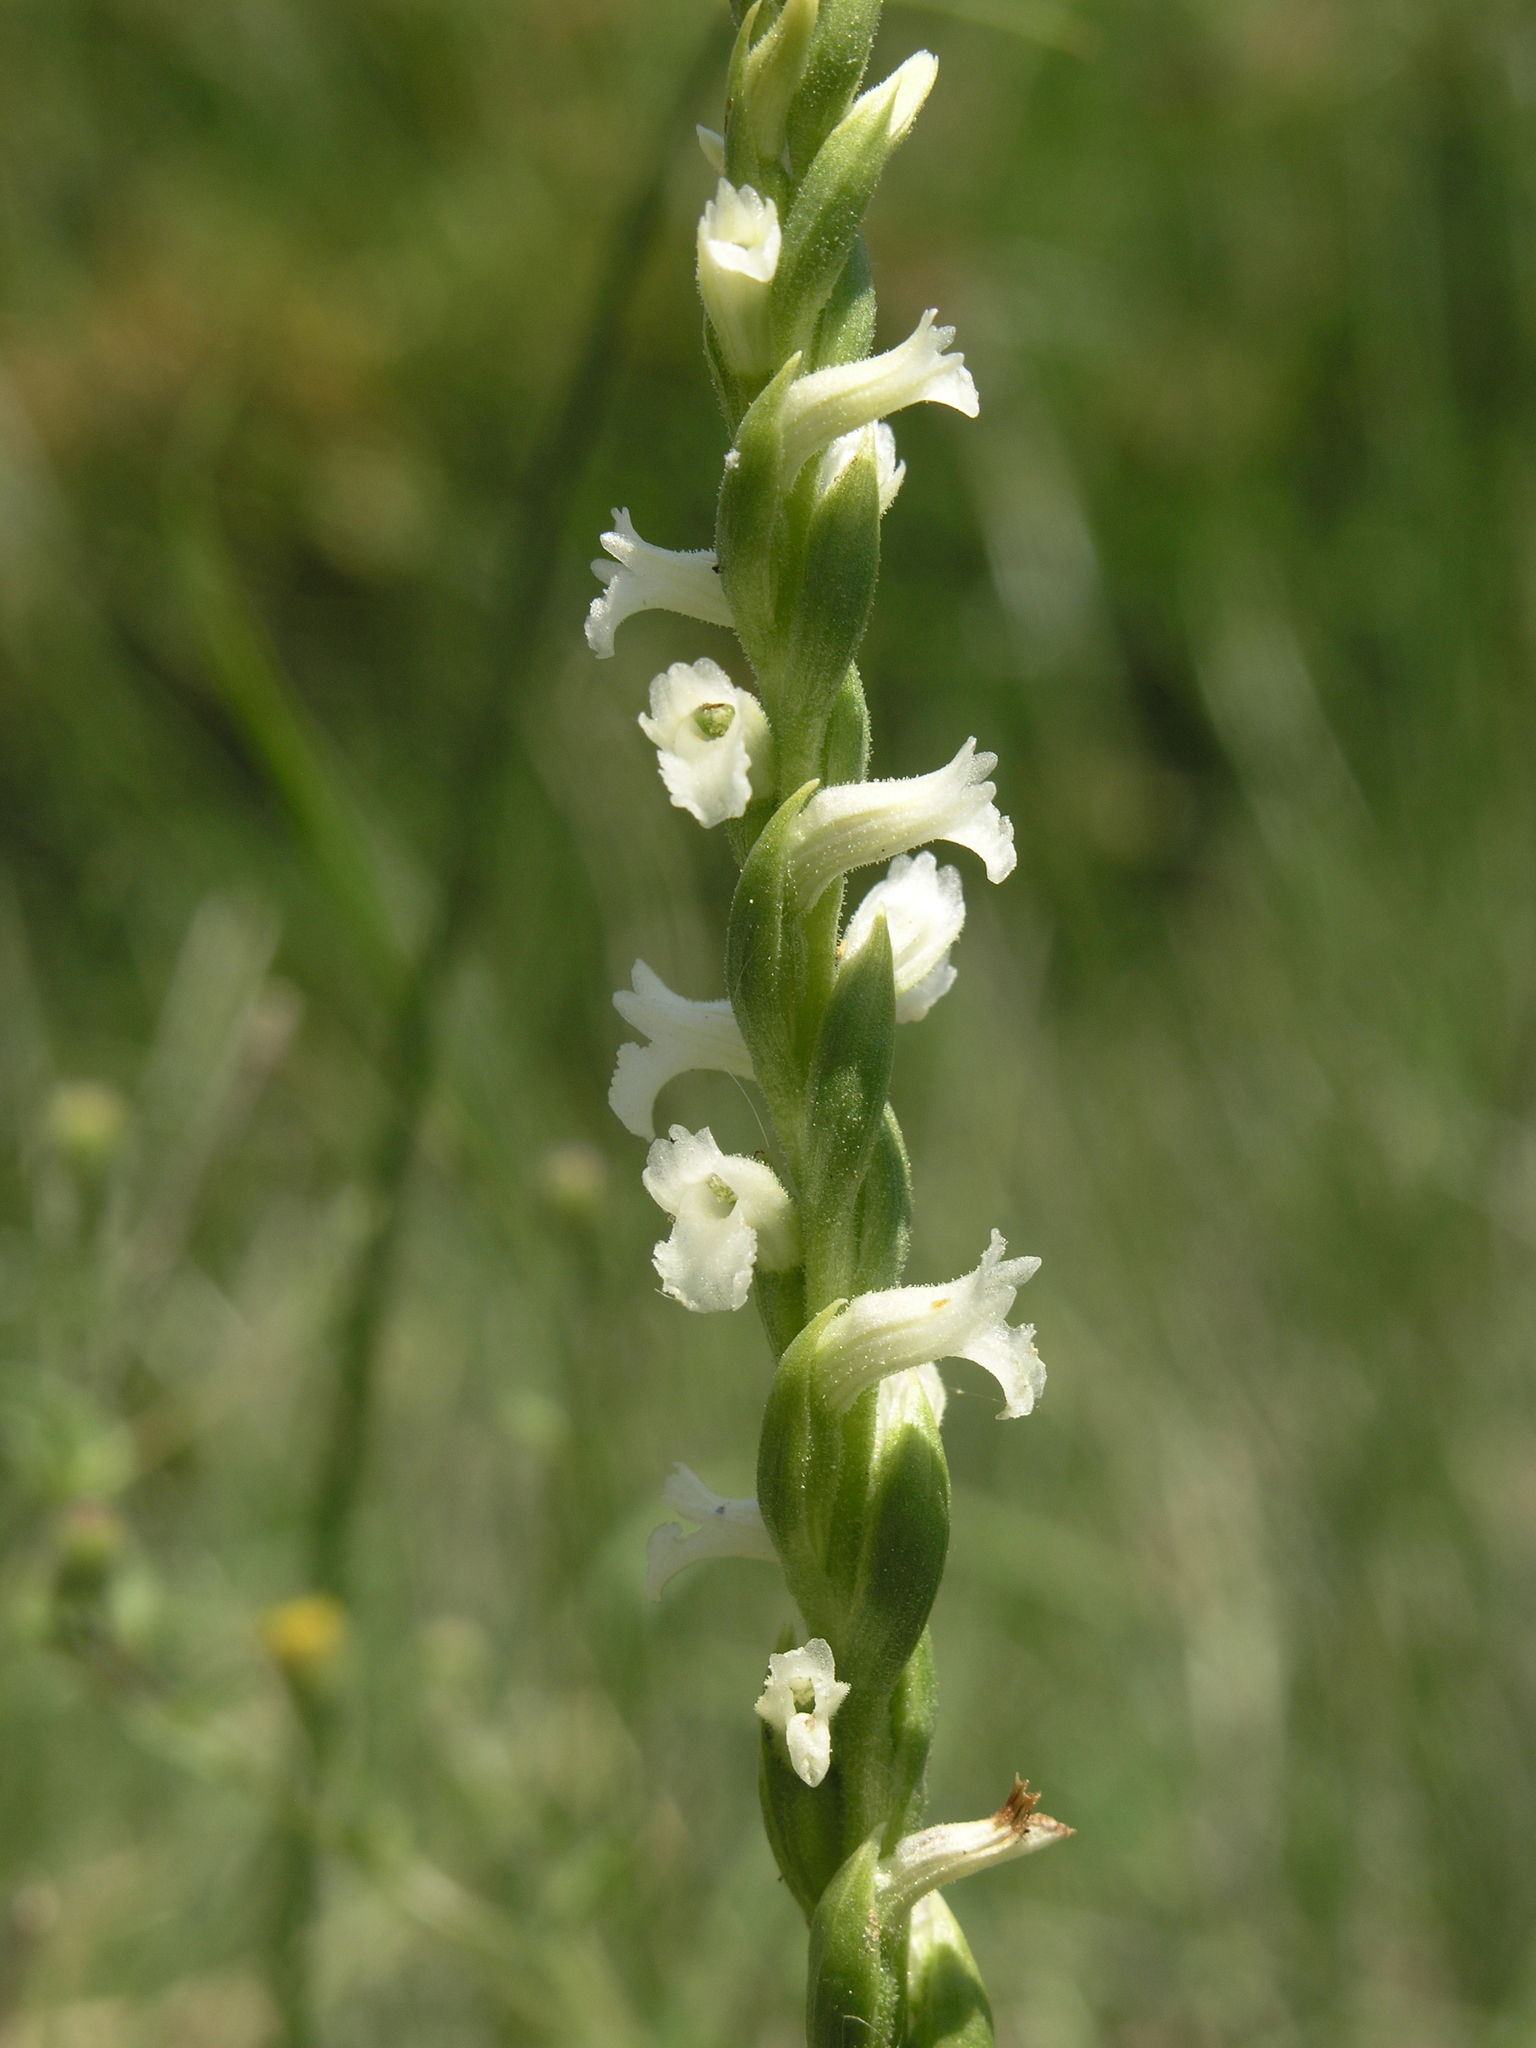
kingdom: Plantae
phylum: Tracheophyta
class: Liliopsida
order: Asparagales
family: Orchidaceae
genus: Spiranthes
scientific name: Spiranthes aestivalis
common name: Summer lady's-tresses
